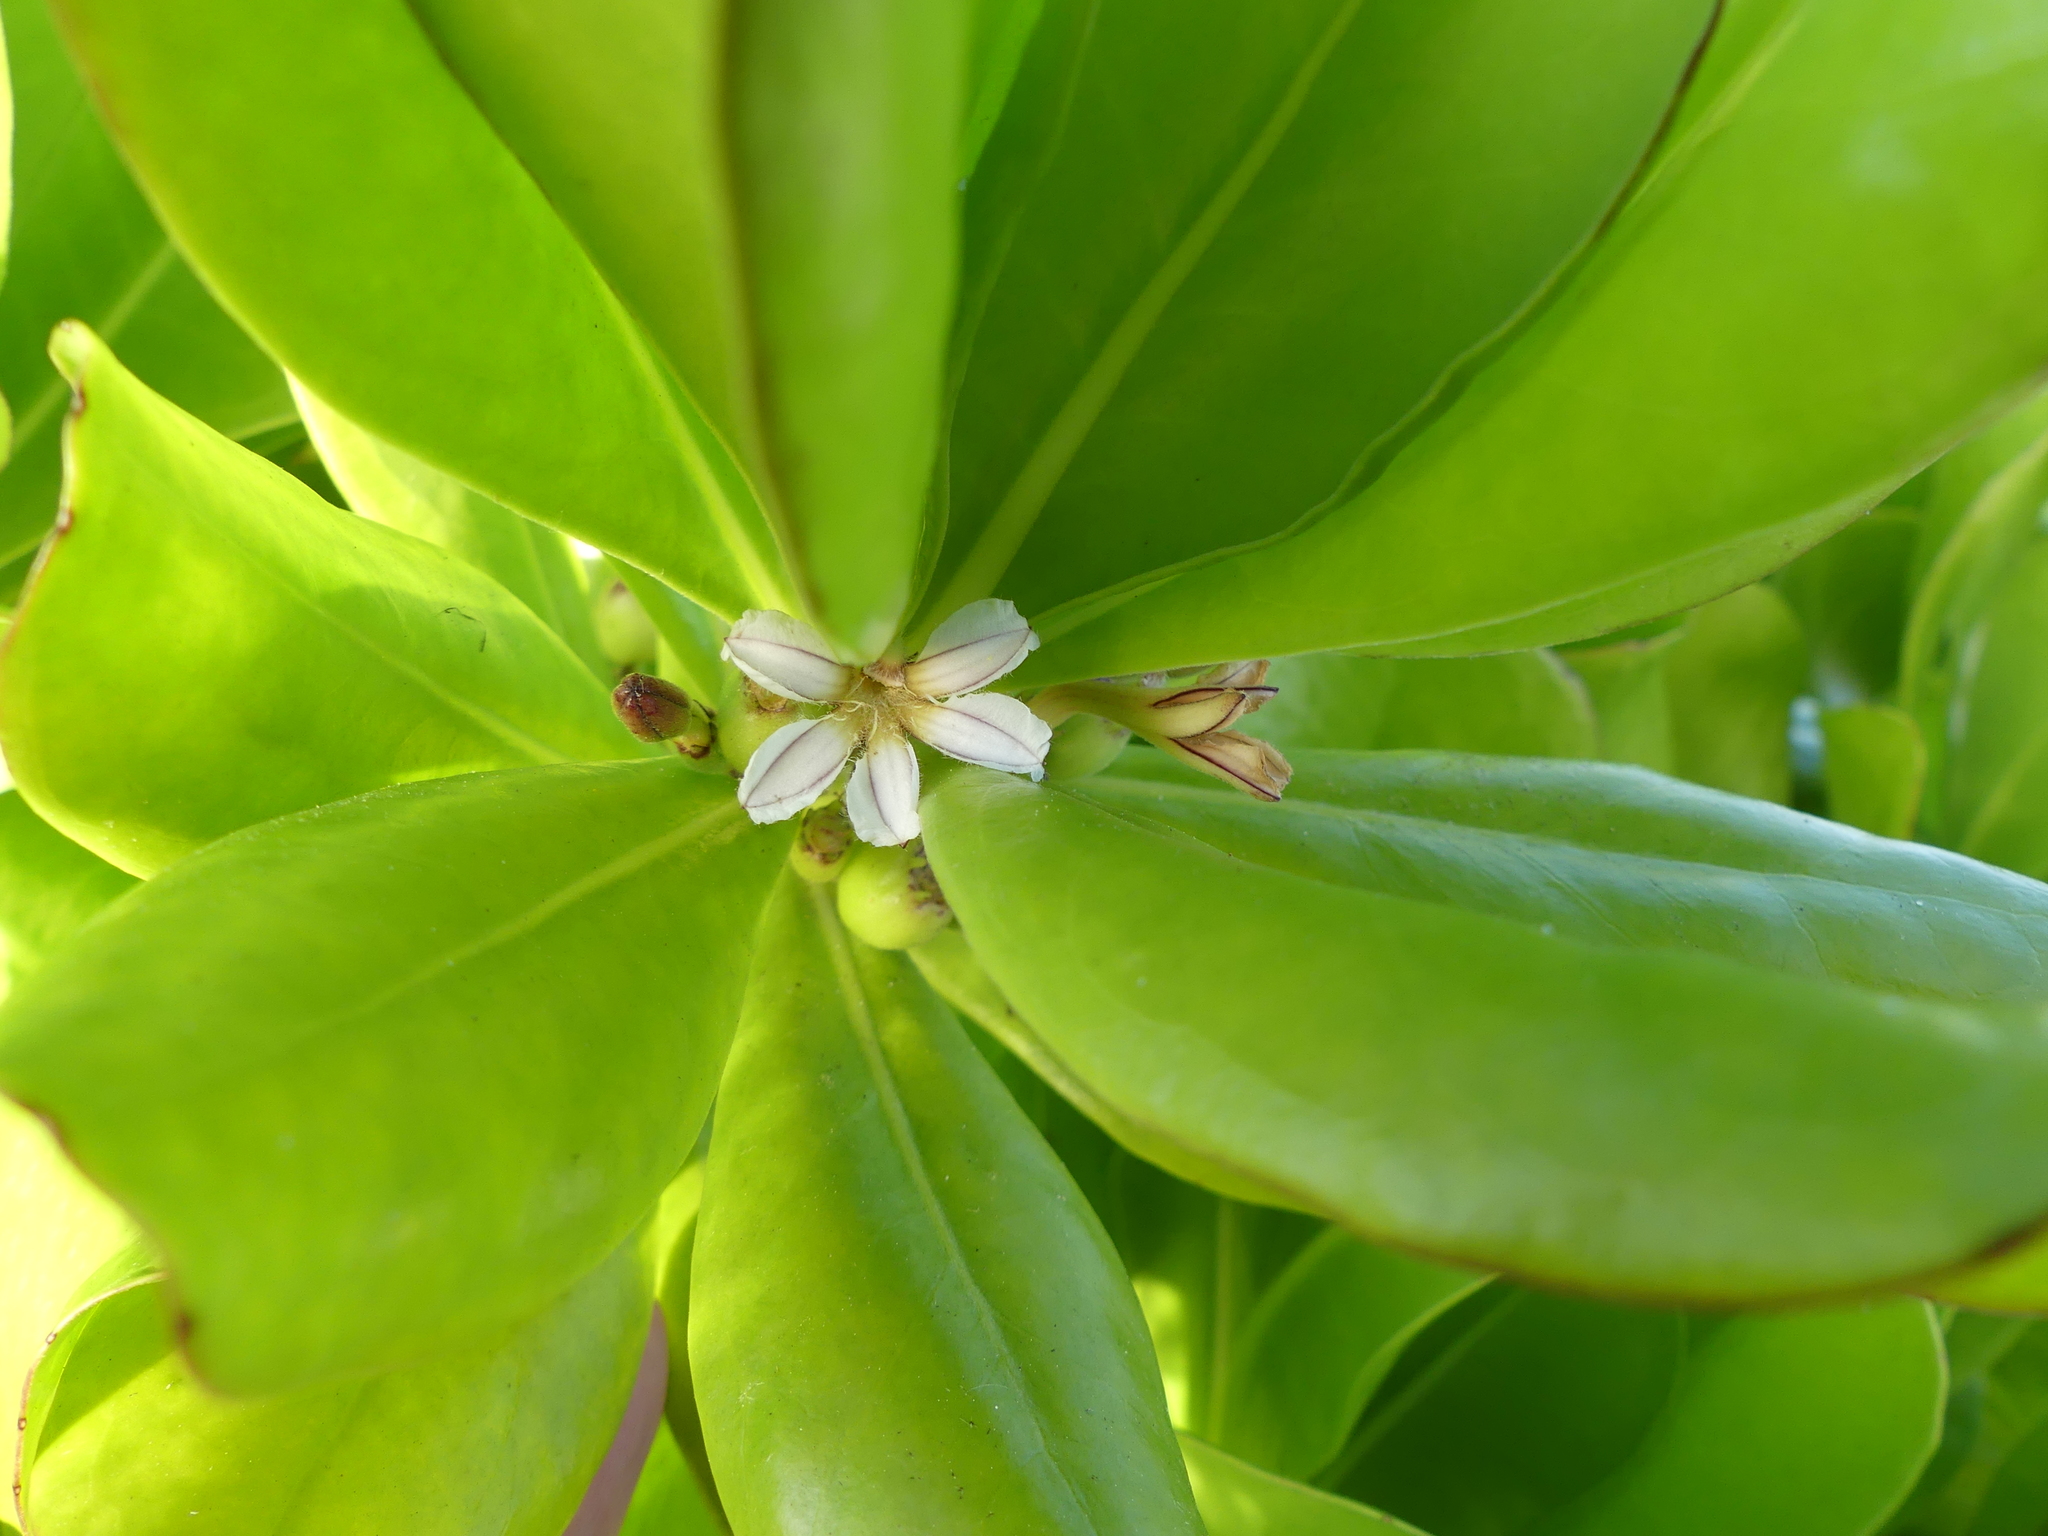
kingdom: Plantae
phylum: Tracheophyta
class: Magnoliopsida
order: Asterales
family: Goodeniaceae
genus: Scaevola
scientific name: Scaevola taccada
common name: Sea lettucetree
